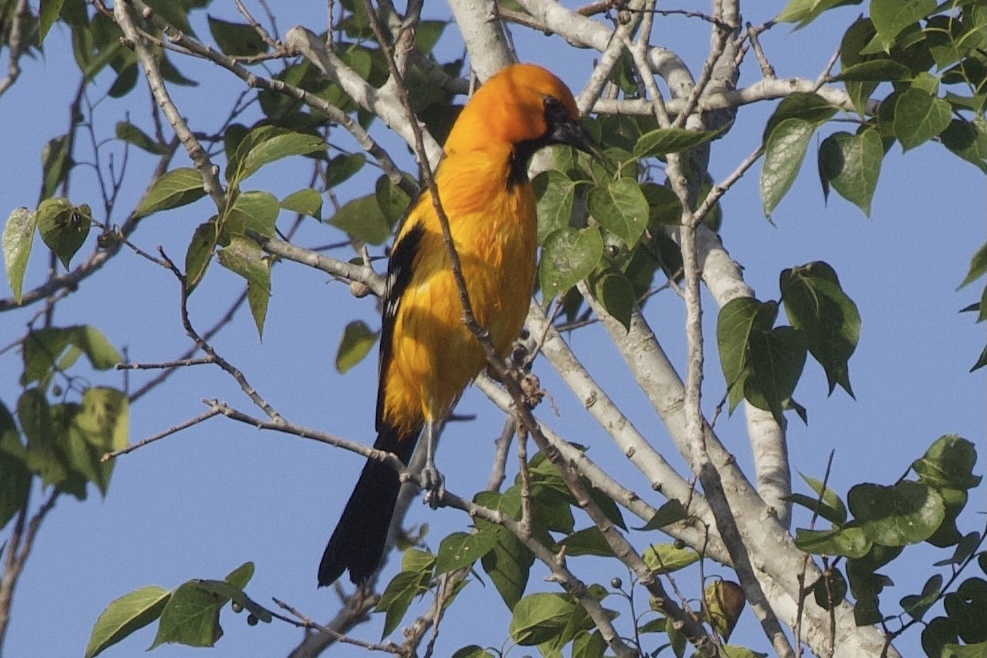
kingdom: Animalia
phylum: Chordata
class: Aves
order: Passeriformes
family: Icteridae
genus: Icterus
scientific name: Icterus gularis
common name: Altamira oriole
